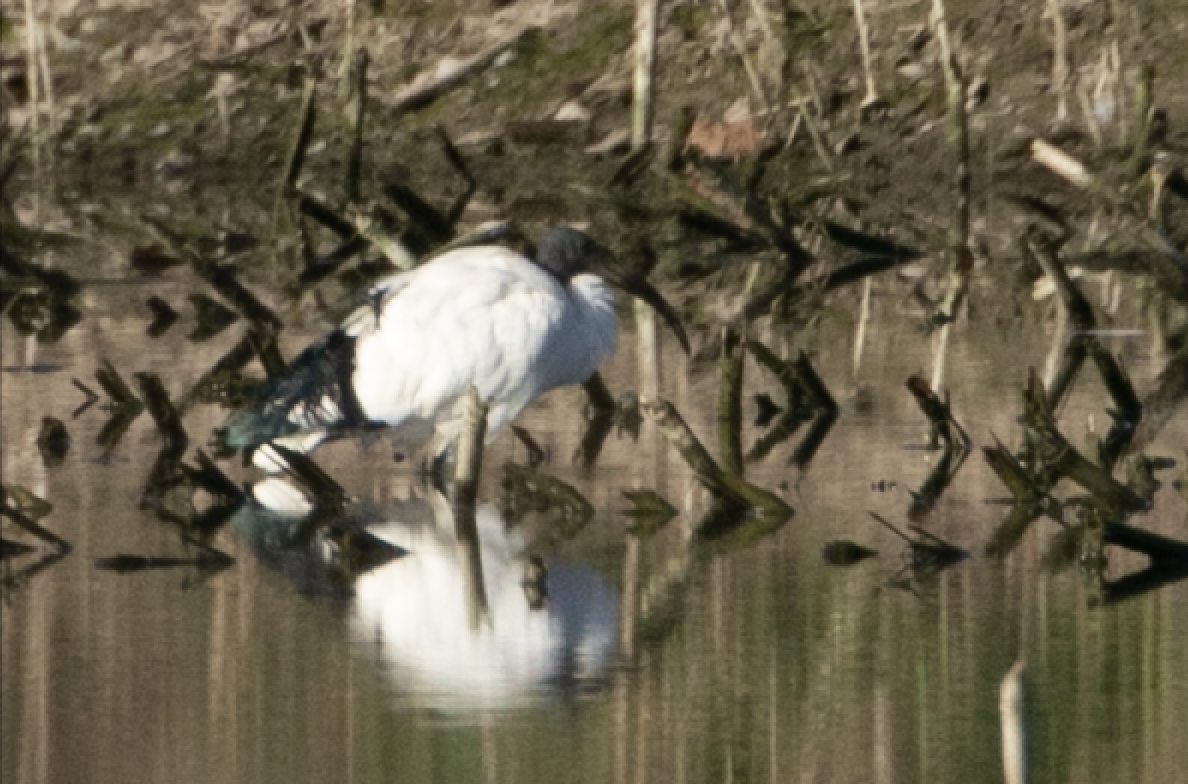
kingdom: Animalia
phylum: Chordata
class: Aves
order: Pelecaniformes
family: Threskiornithidae
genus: Threskiornis
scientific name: Threskiornis aethiopicus
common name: Sacred ibis
